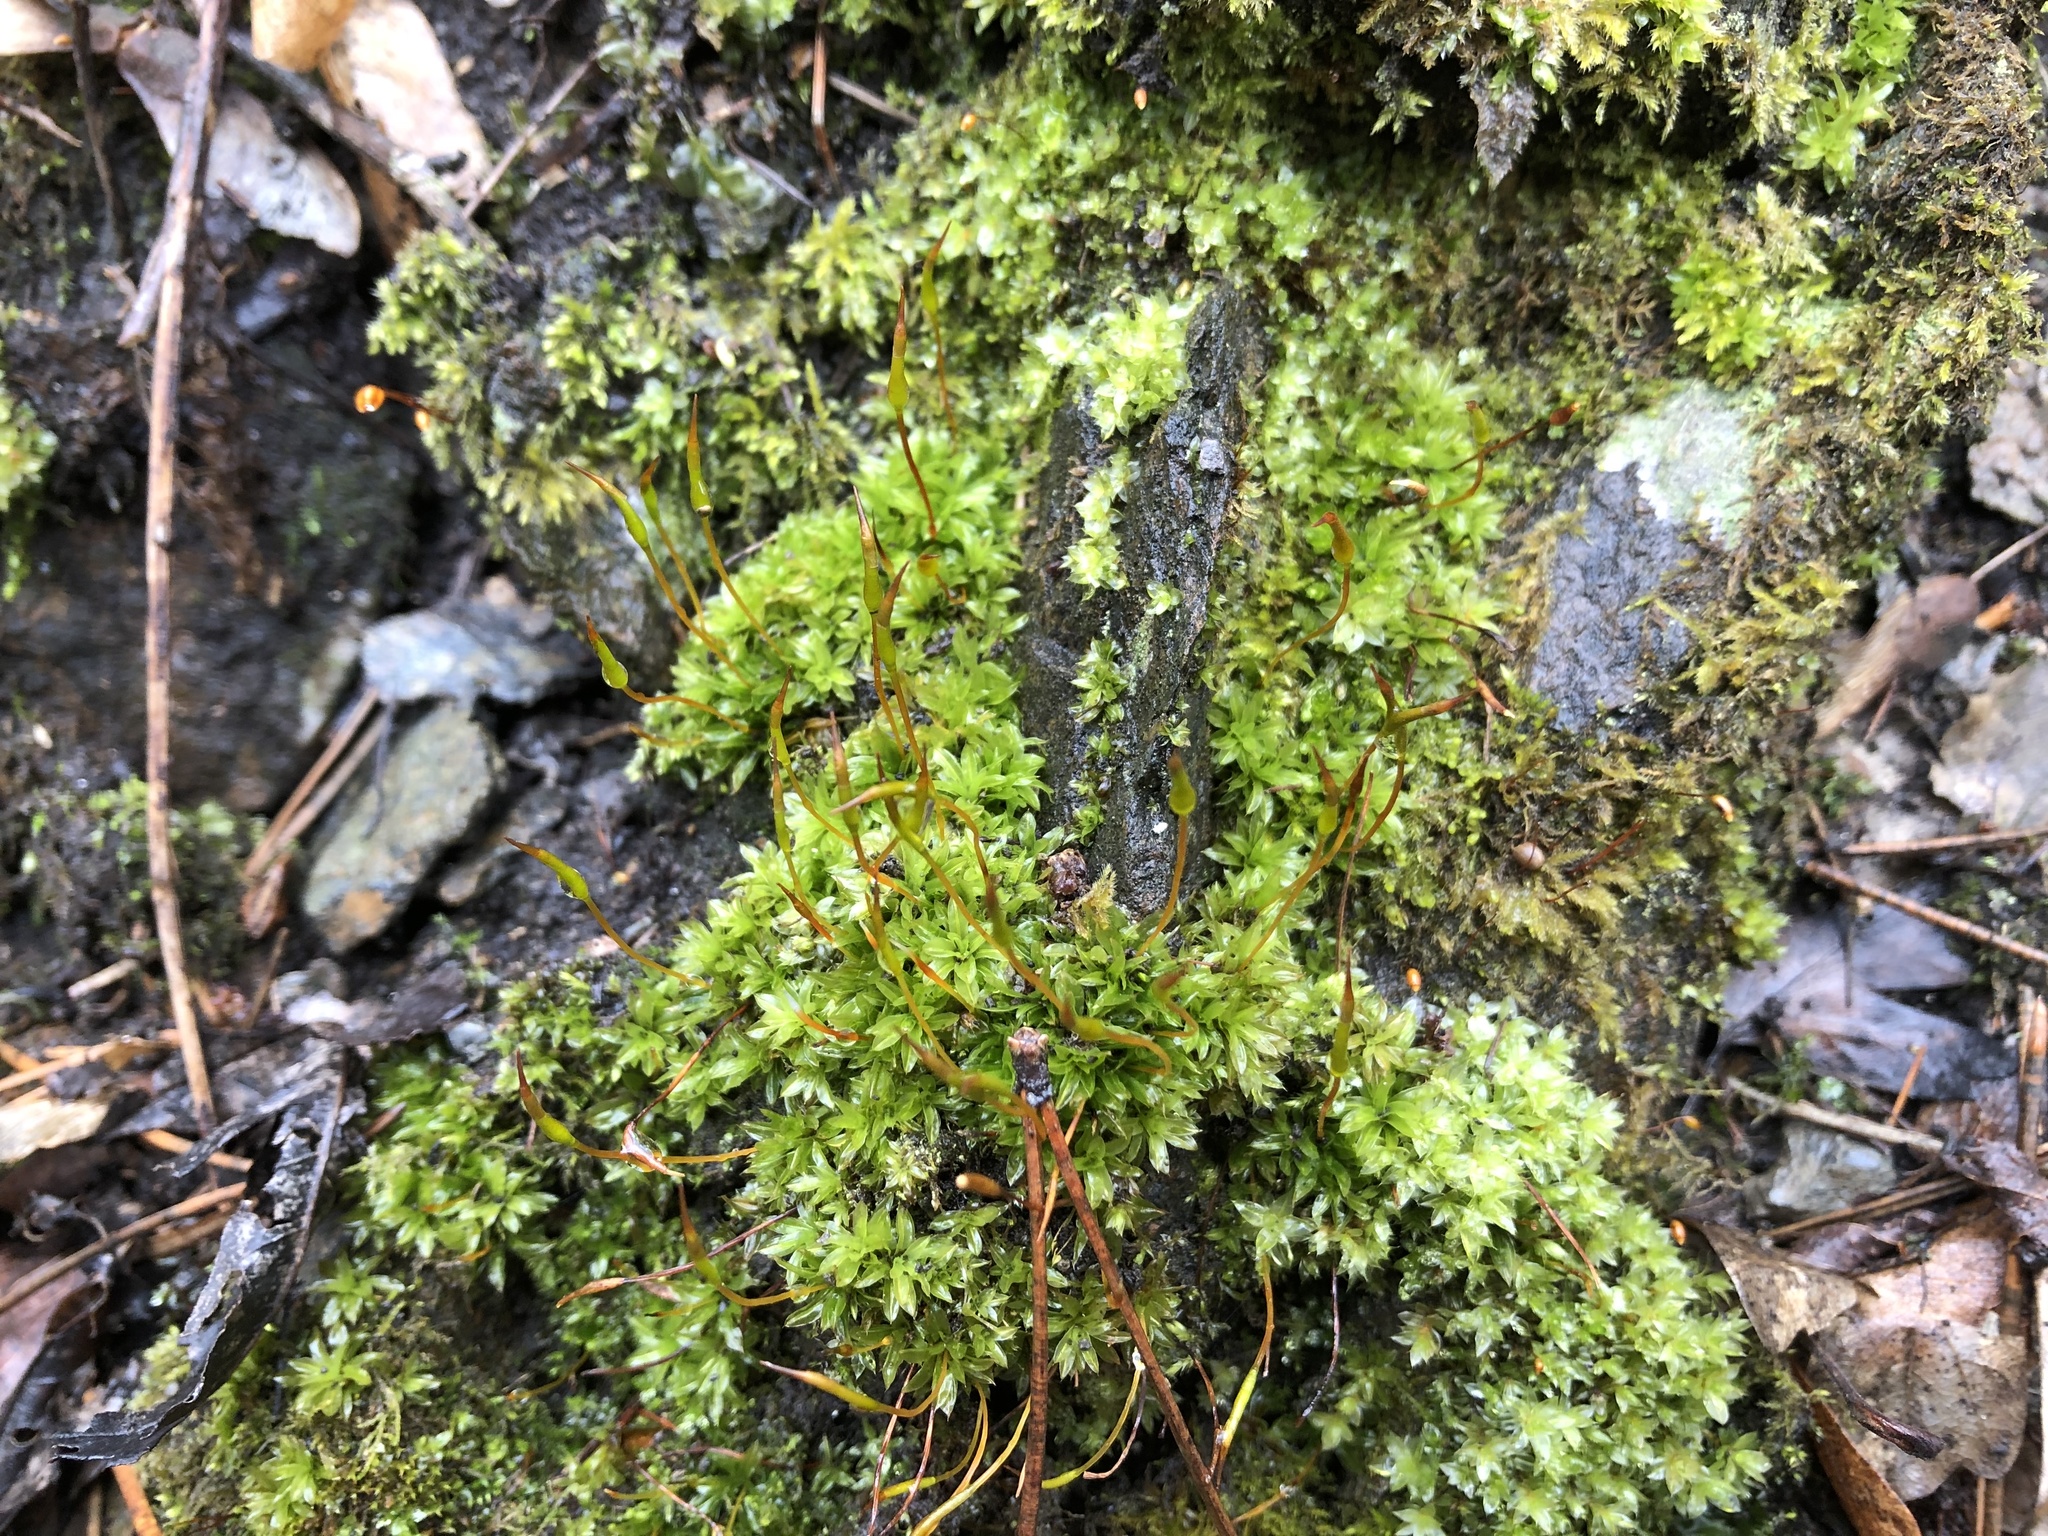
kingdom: Plantae
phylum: Bryophyta
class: Bryopsida
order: Pottiales
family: Pottiaceae
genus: Tortula
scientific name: Tortula subulata
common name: Upright screw-moss
